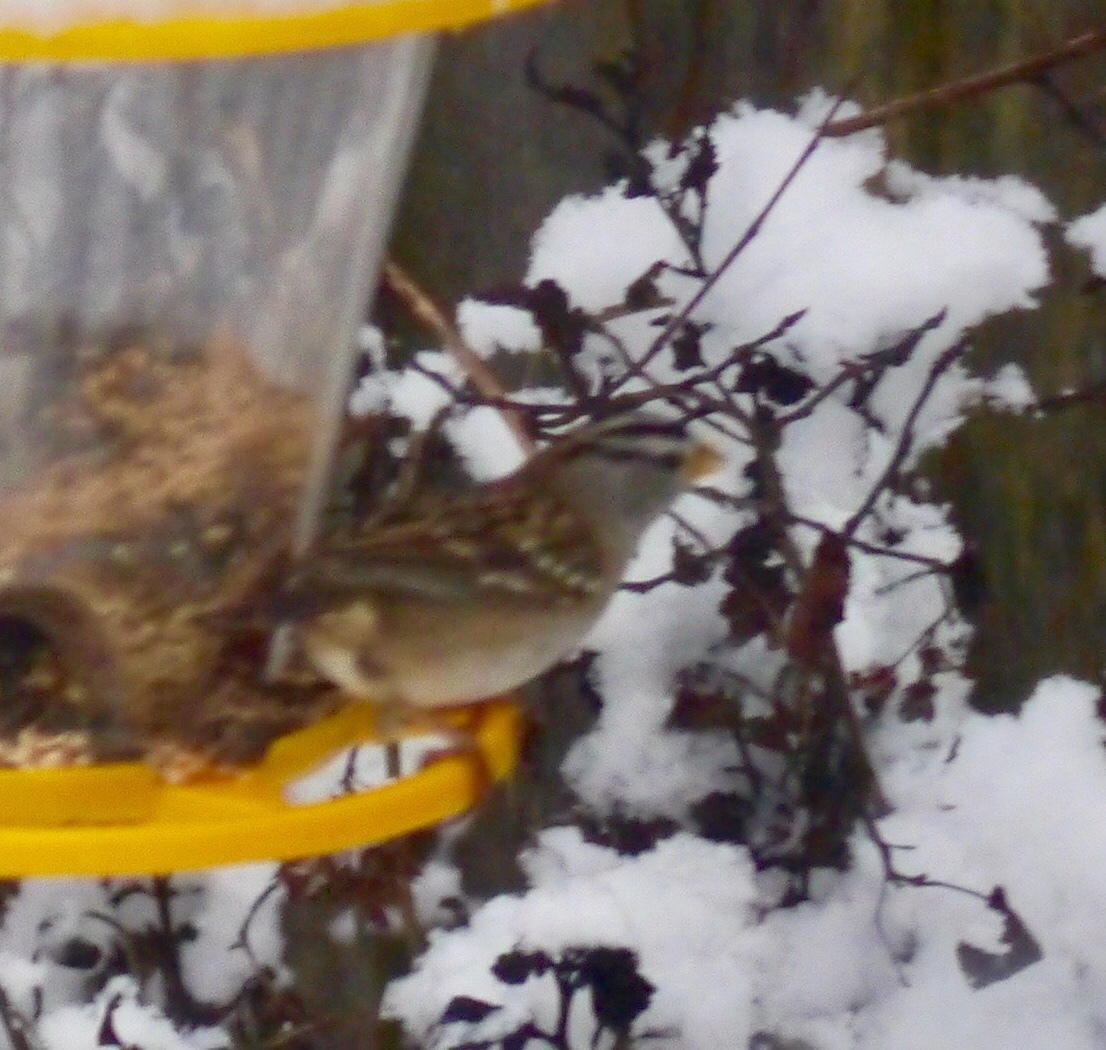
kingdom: Animalia
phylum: Chordata
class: Aves
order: Passeriformes
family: Passerellidae
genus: Zonotrichia
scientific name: Zonotrichia leucophrys
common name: White-crowned sparrow
